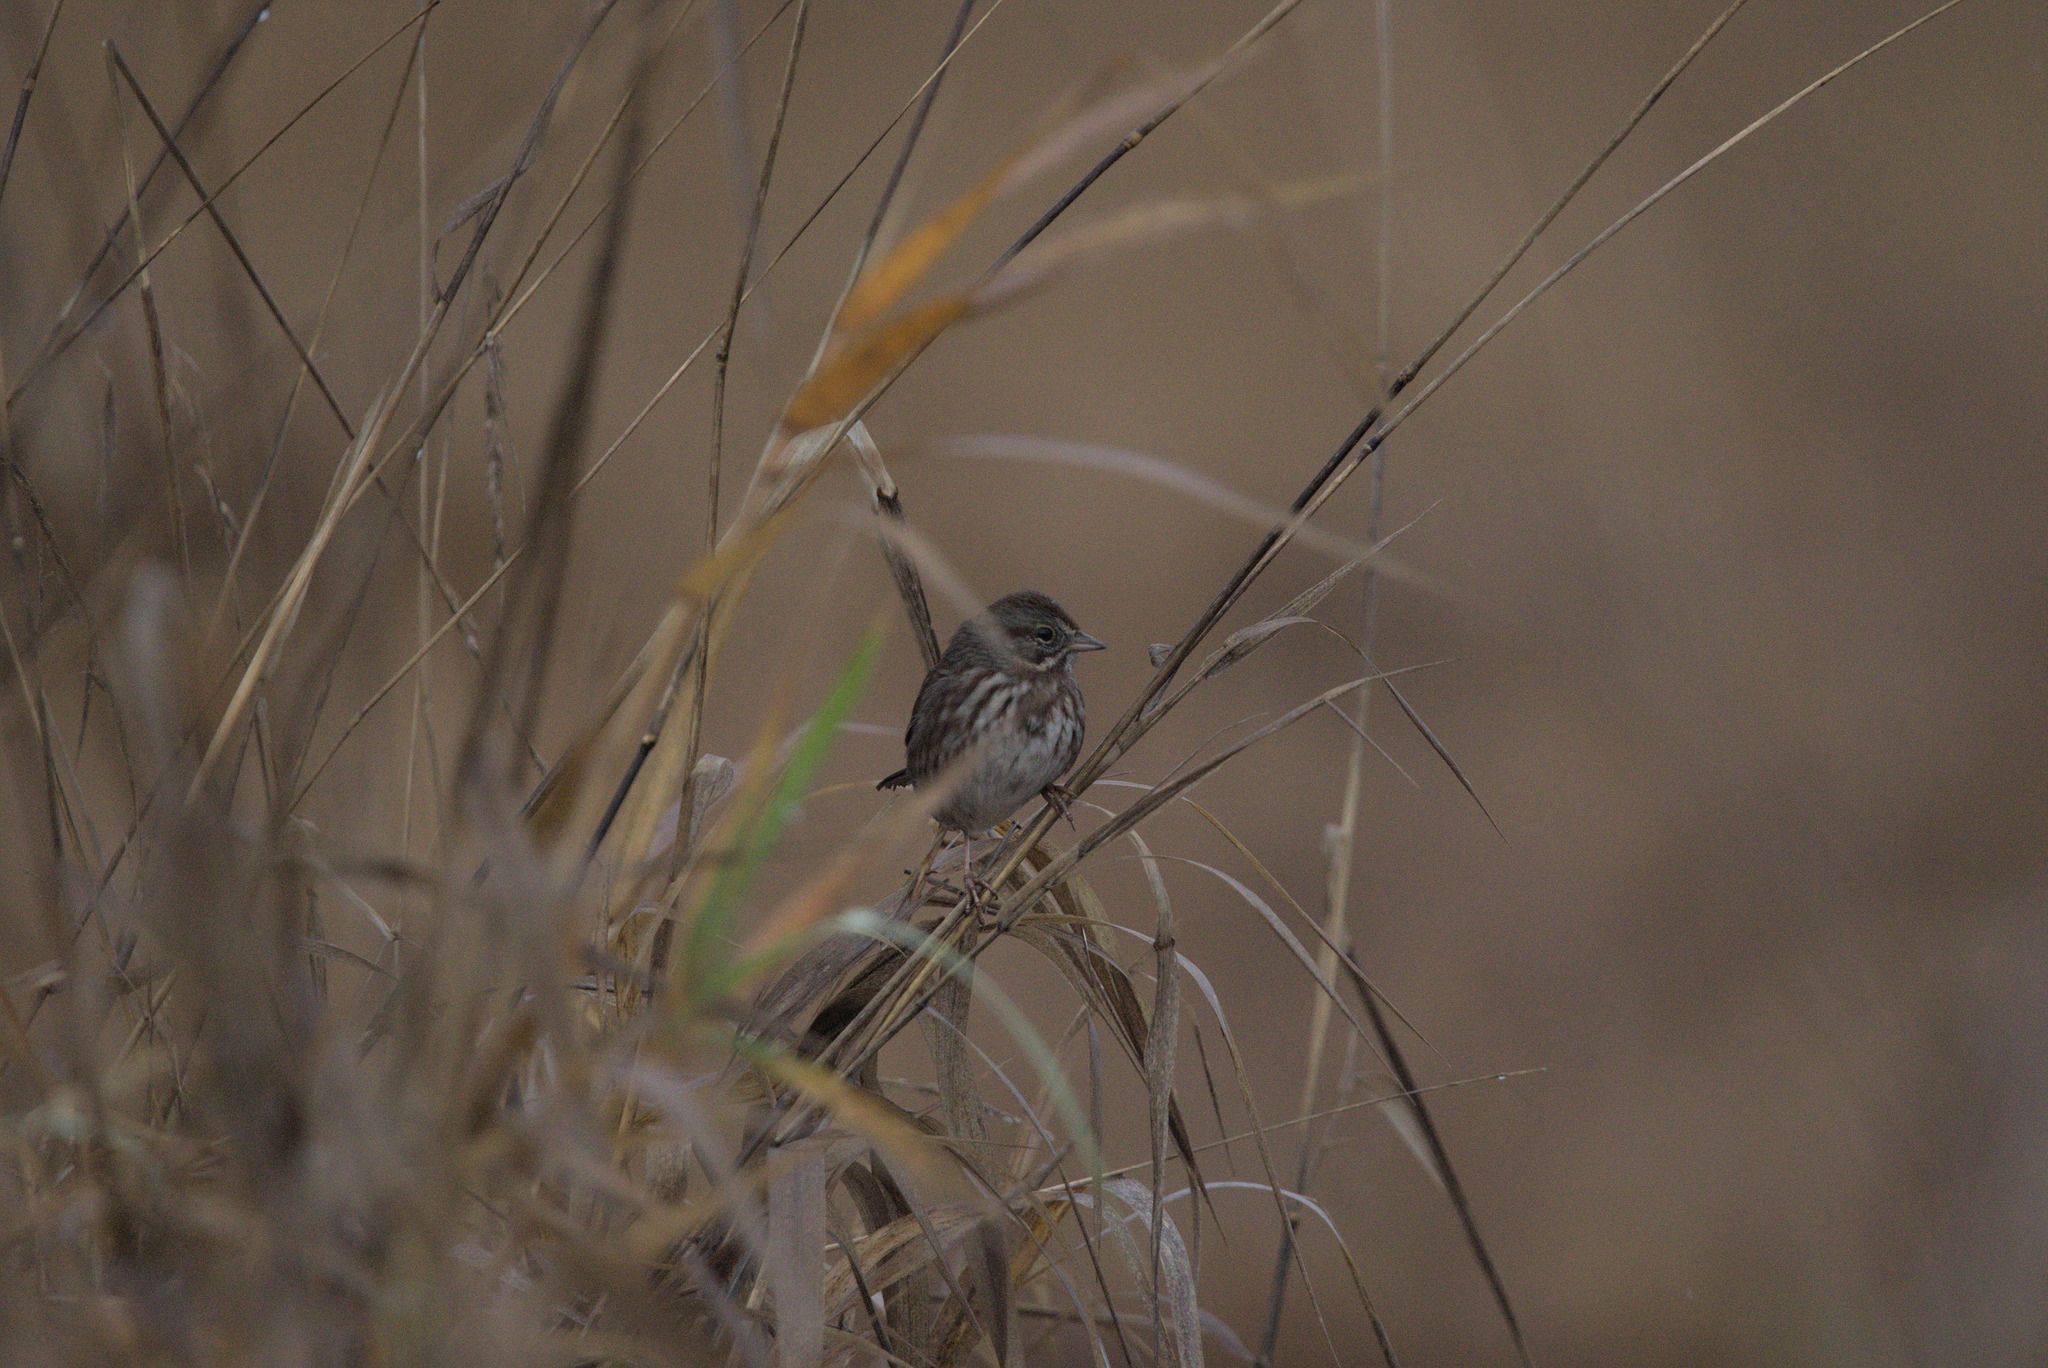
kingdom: Animalia
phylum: Chordata
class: Aves
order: Passeriformes
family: Passerellidae
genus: Melospiza
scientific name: Melospiza melodia
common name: Song sparrow
